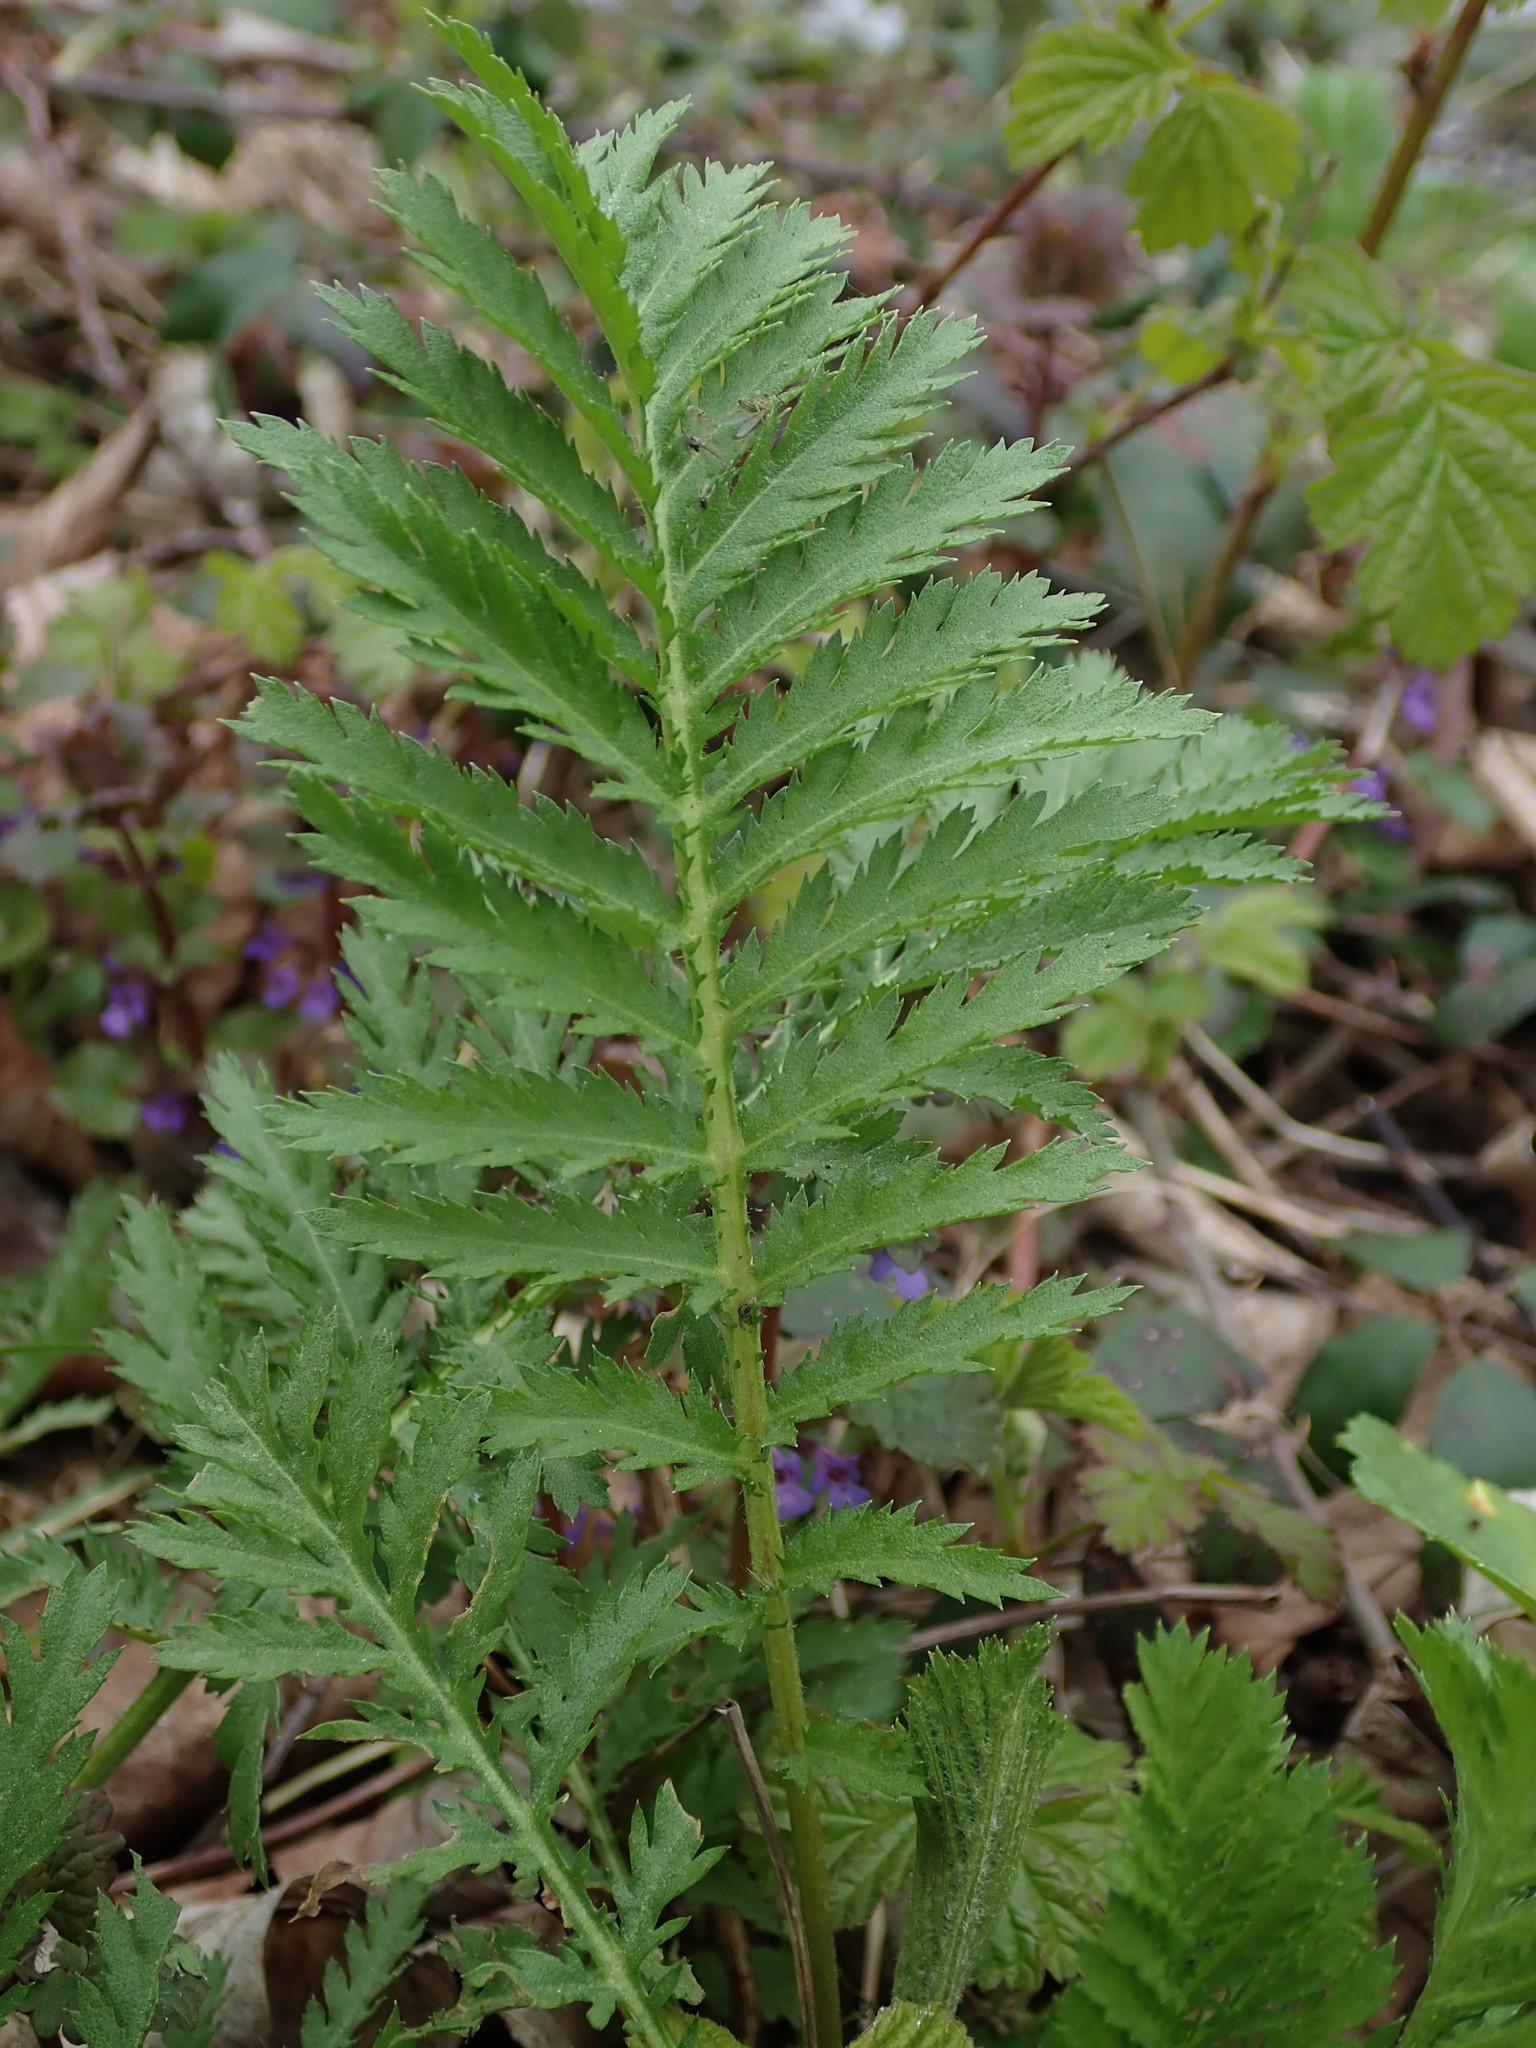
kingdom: Plantae
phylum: Tracheophyta
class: Magnoliopsida
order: Asterales
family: Asteraceae
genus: Tanacetum
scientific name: Tanacetum vulgare
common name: Common tansy
